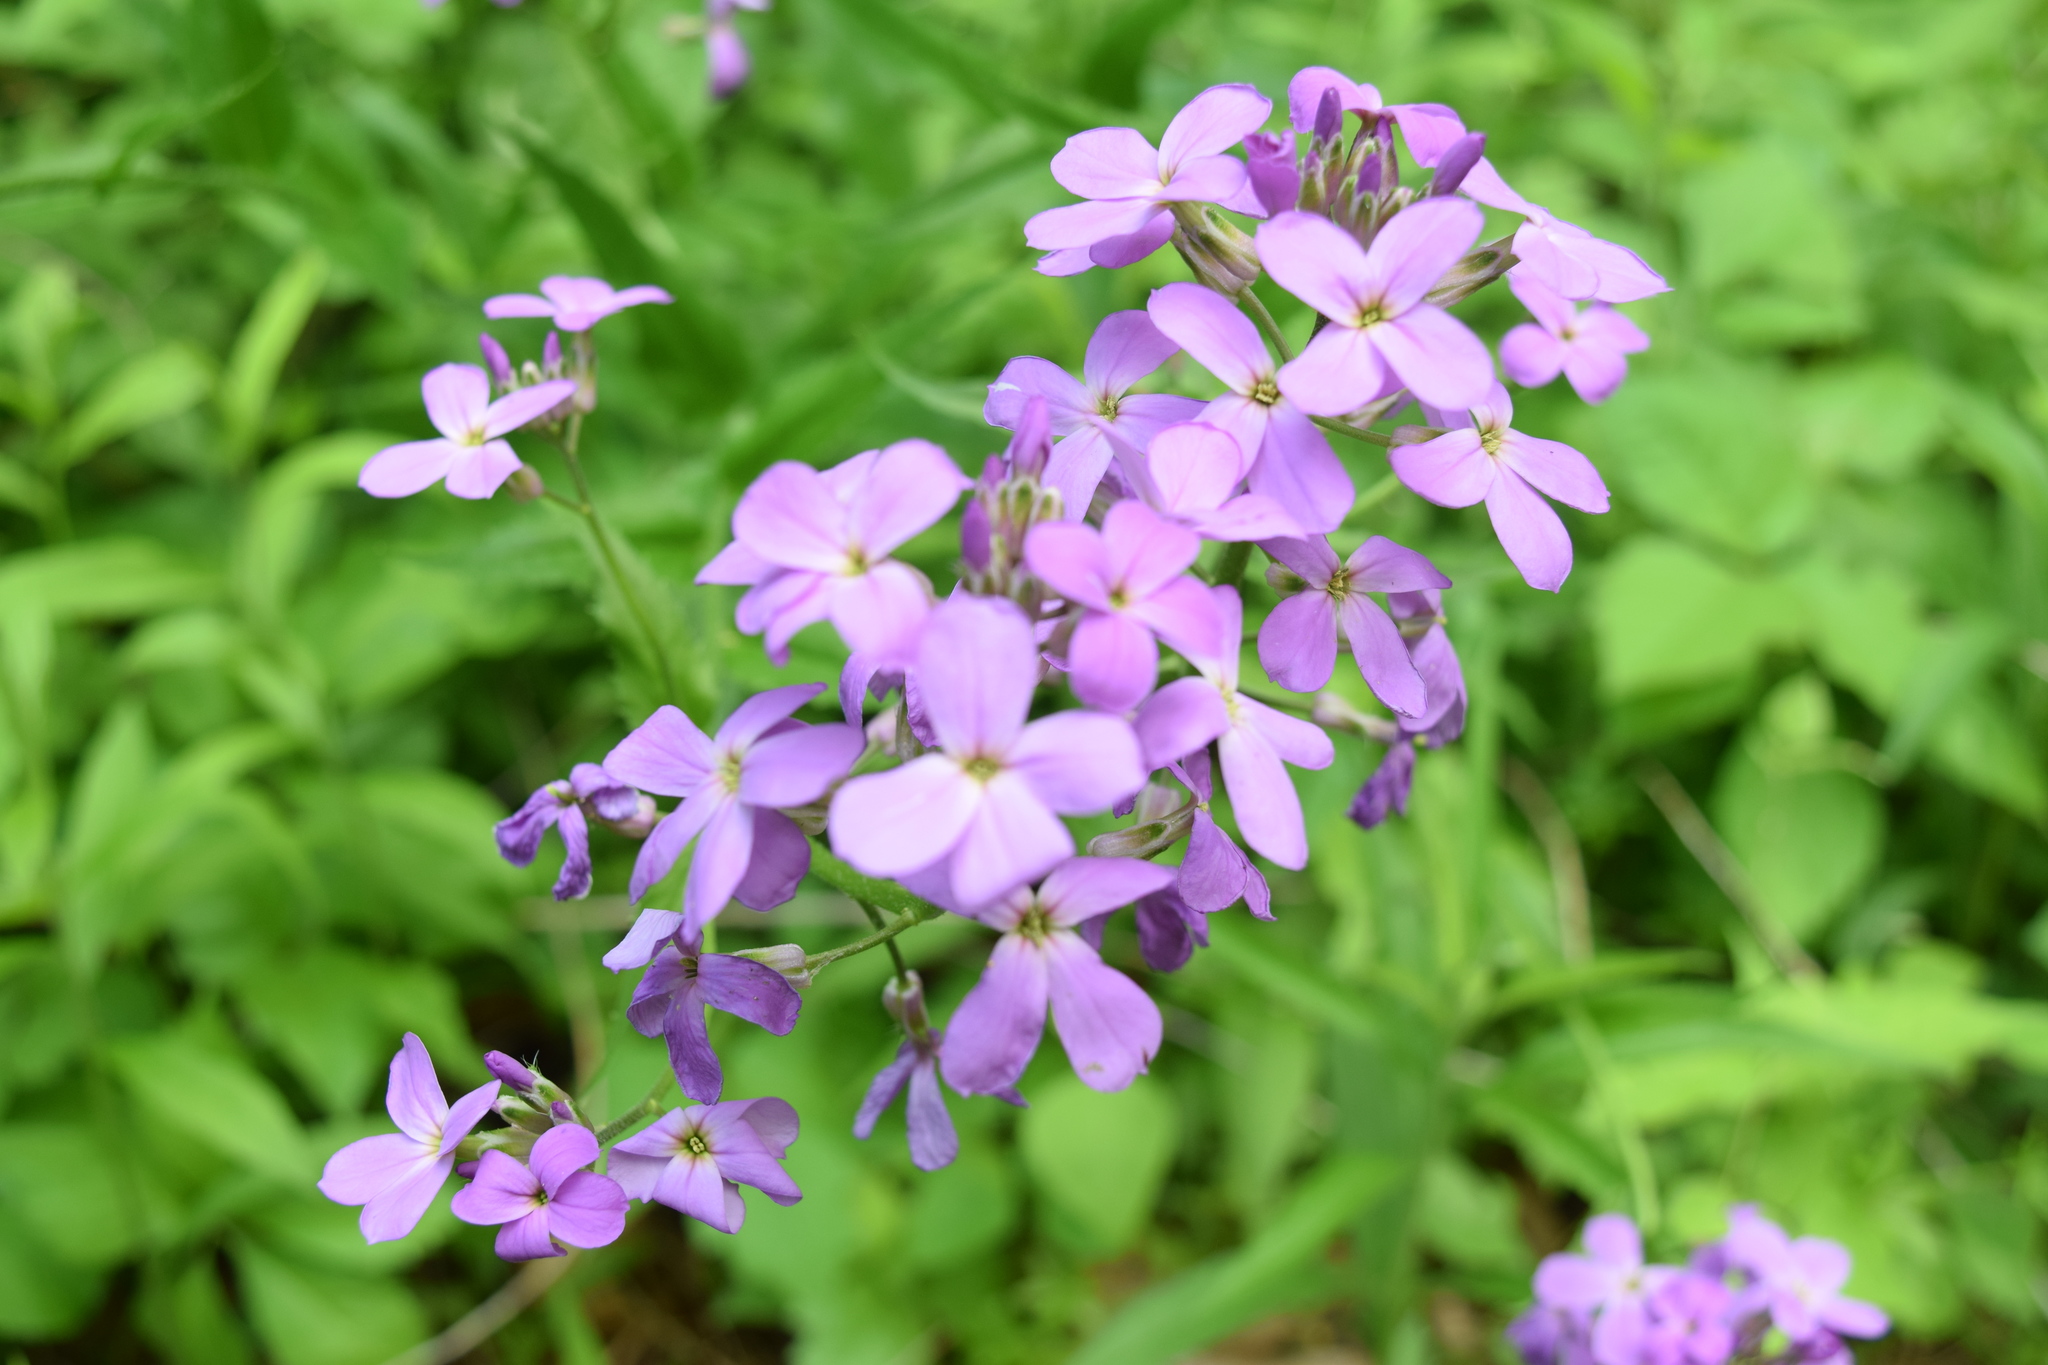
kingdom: Plantae
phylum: Tracheophyta
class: Magnoliopsida
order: Brassicales
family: Brassicaceae
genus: Hesperis
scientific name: Hesperis matronalis
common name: Dame's-violet
